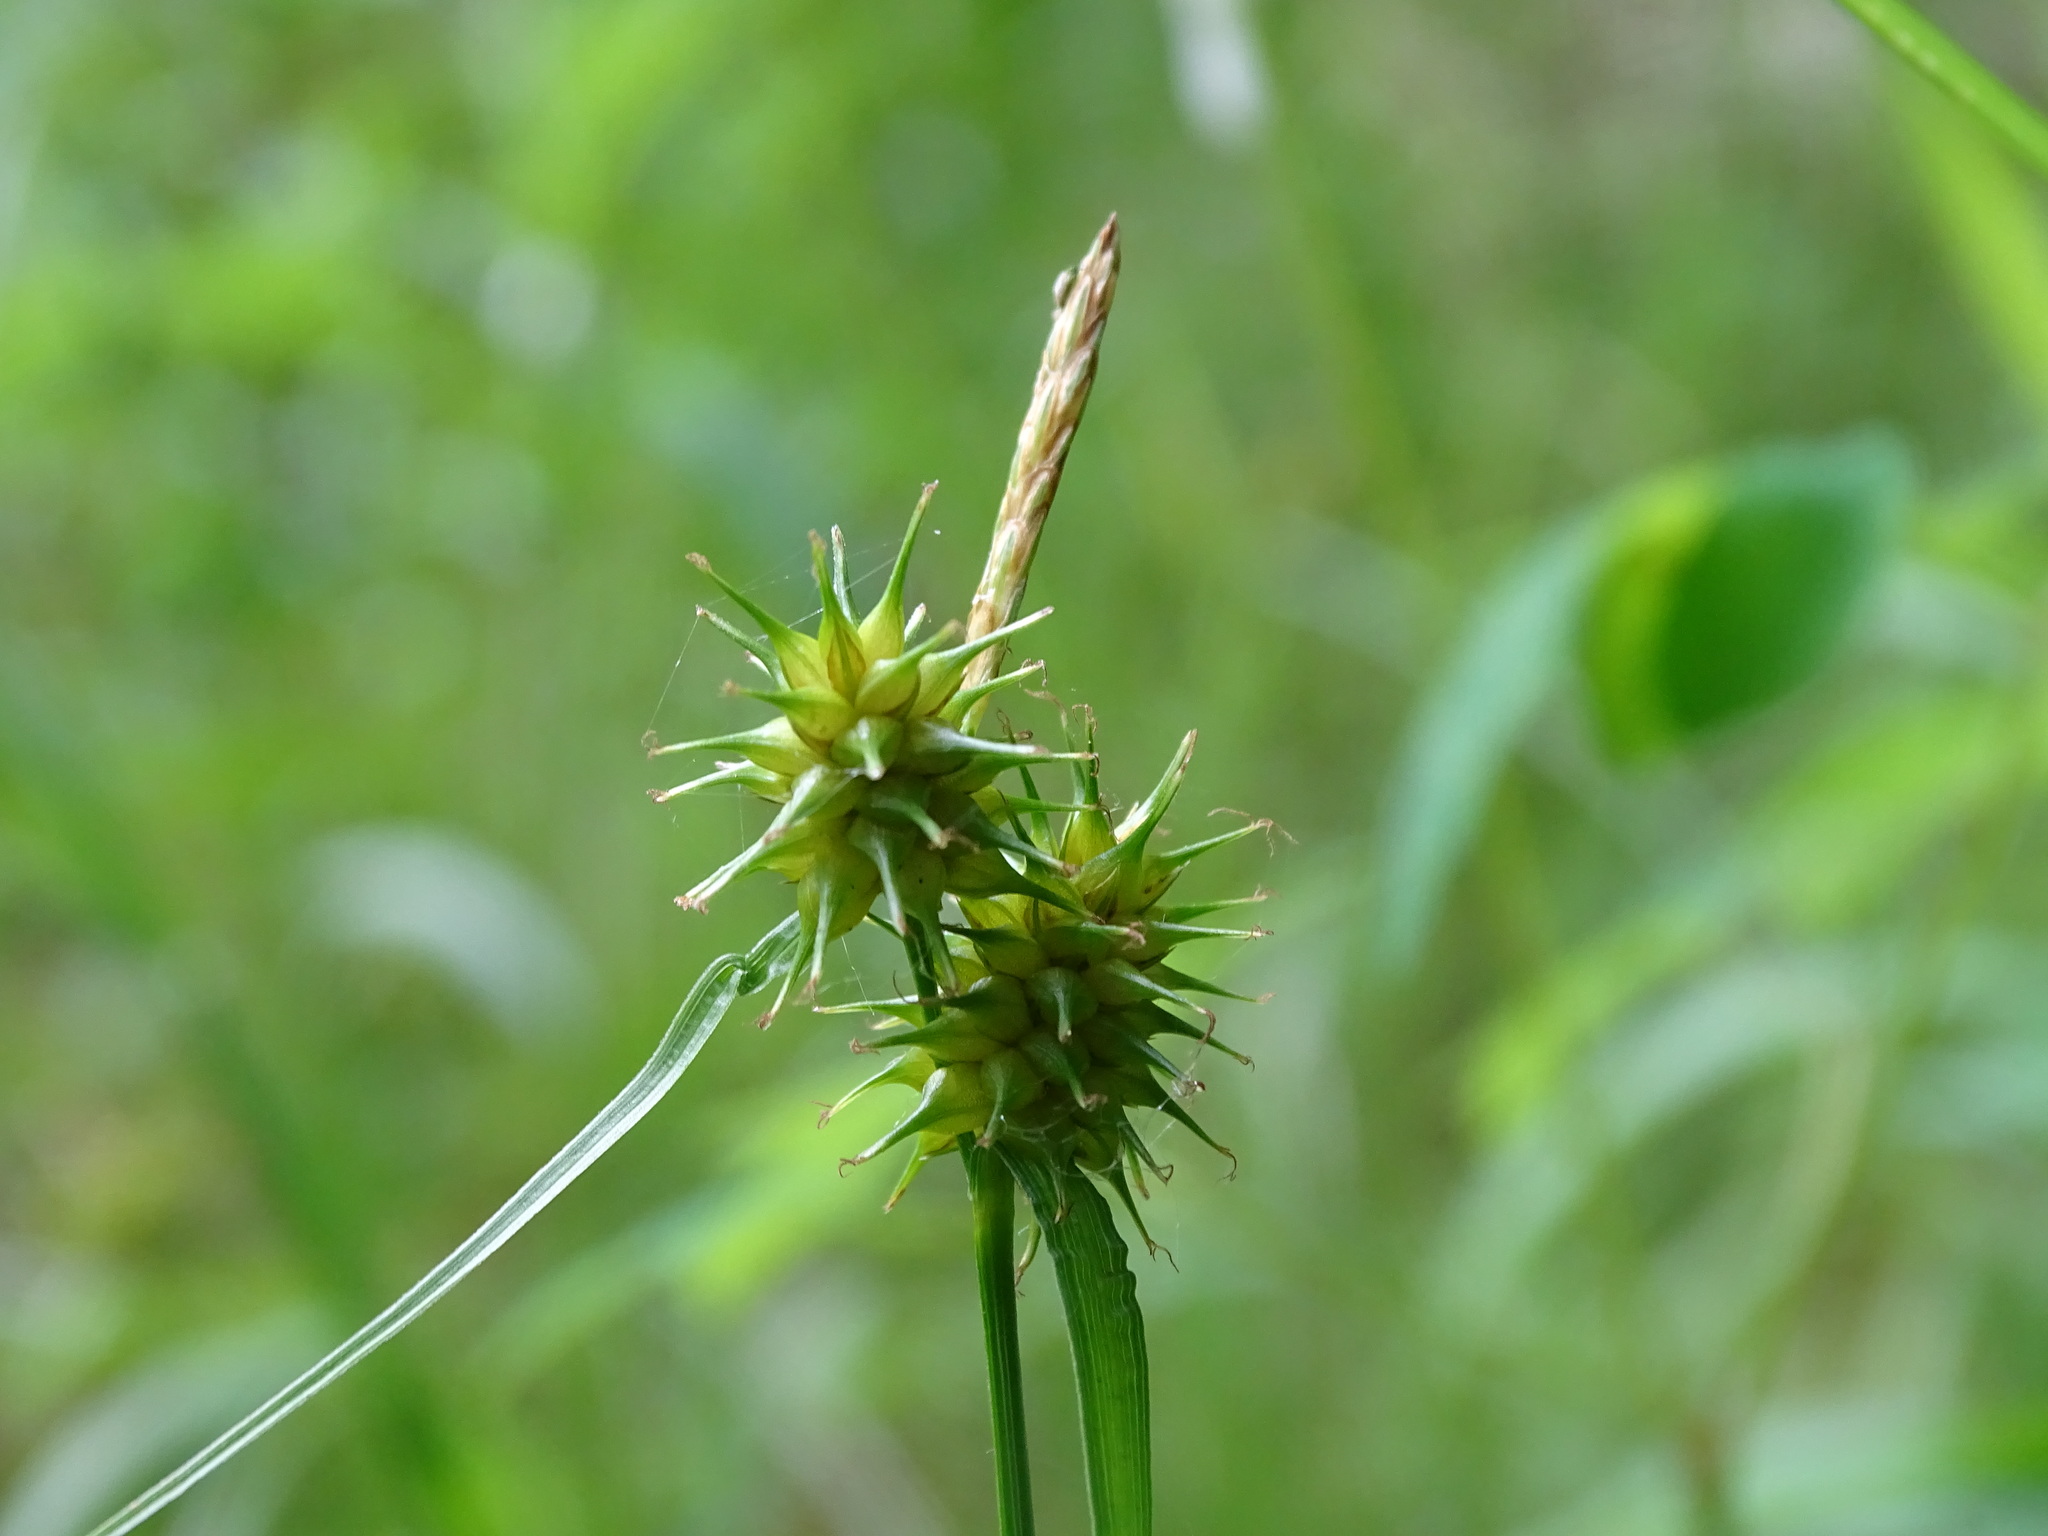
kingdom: Plantae
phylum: Tracheophyta
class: Liliopsida
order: Poales
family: Cyperaceae
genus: Carex
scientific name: Carex flava
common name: Large yellow-sedge
